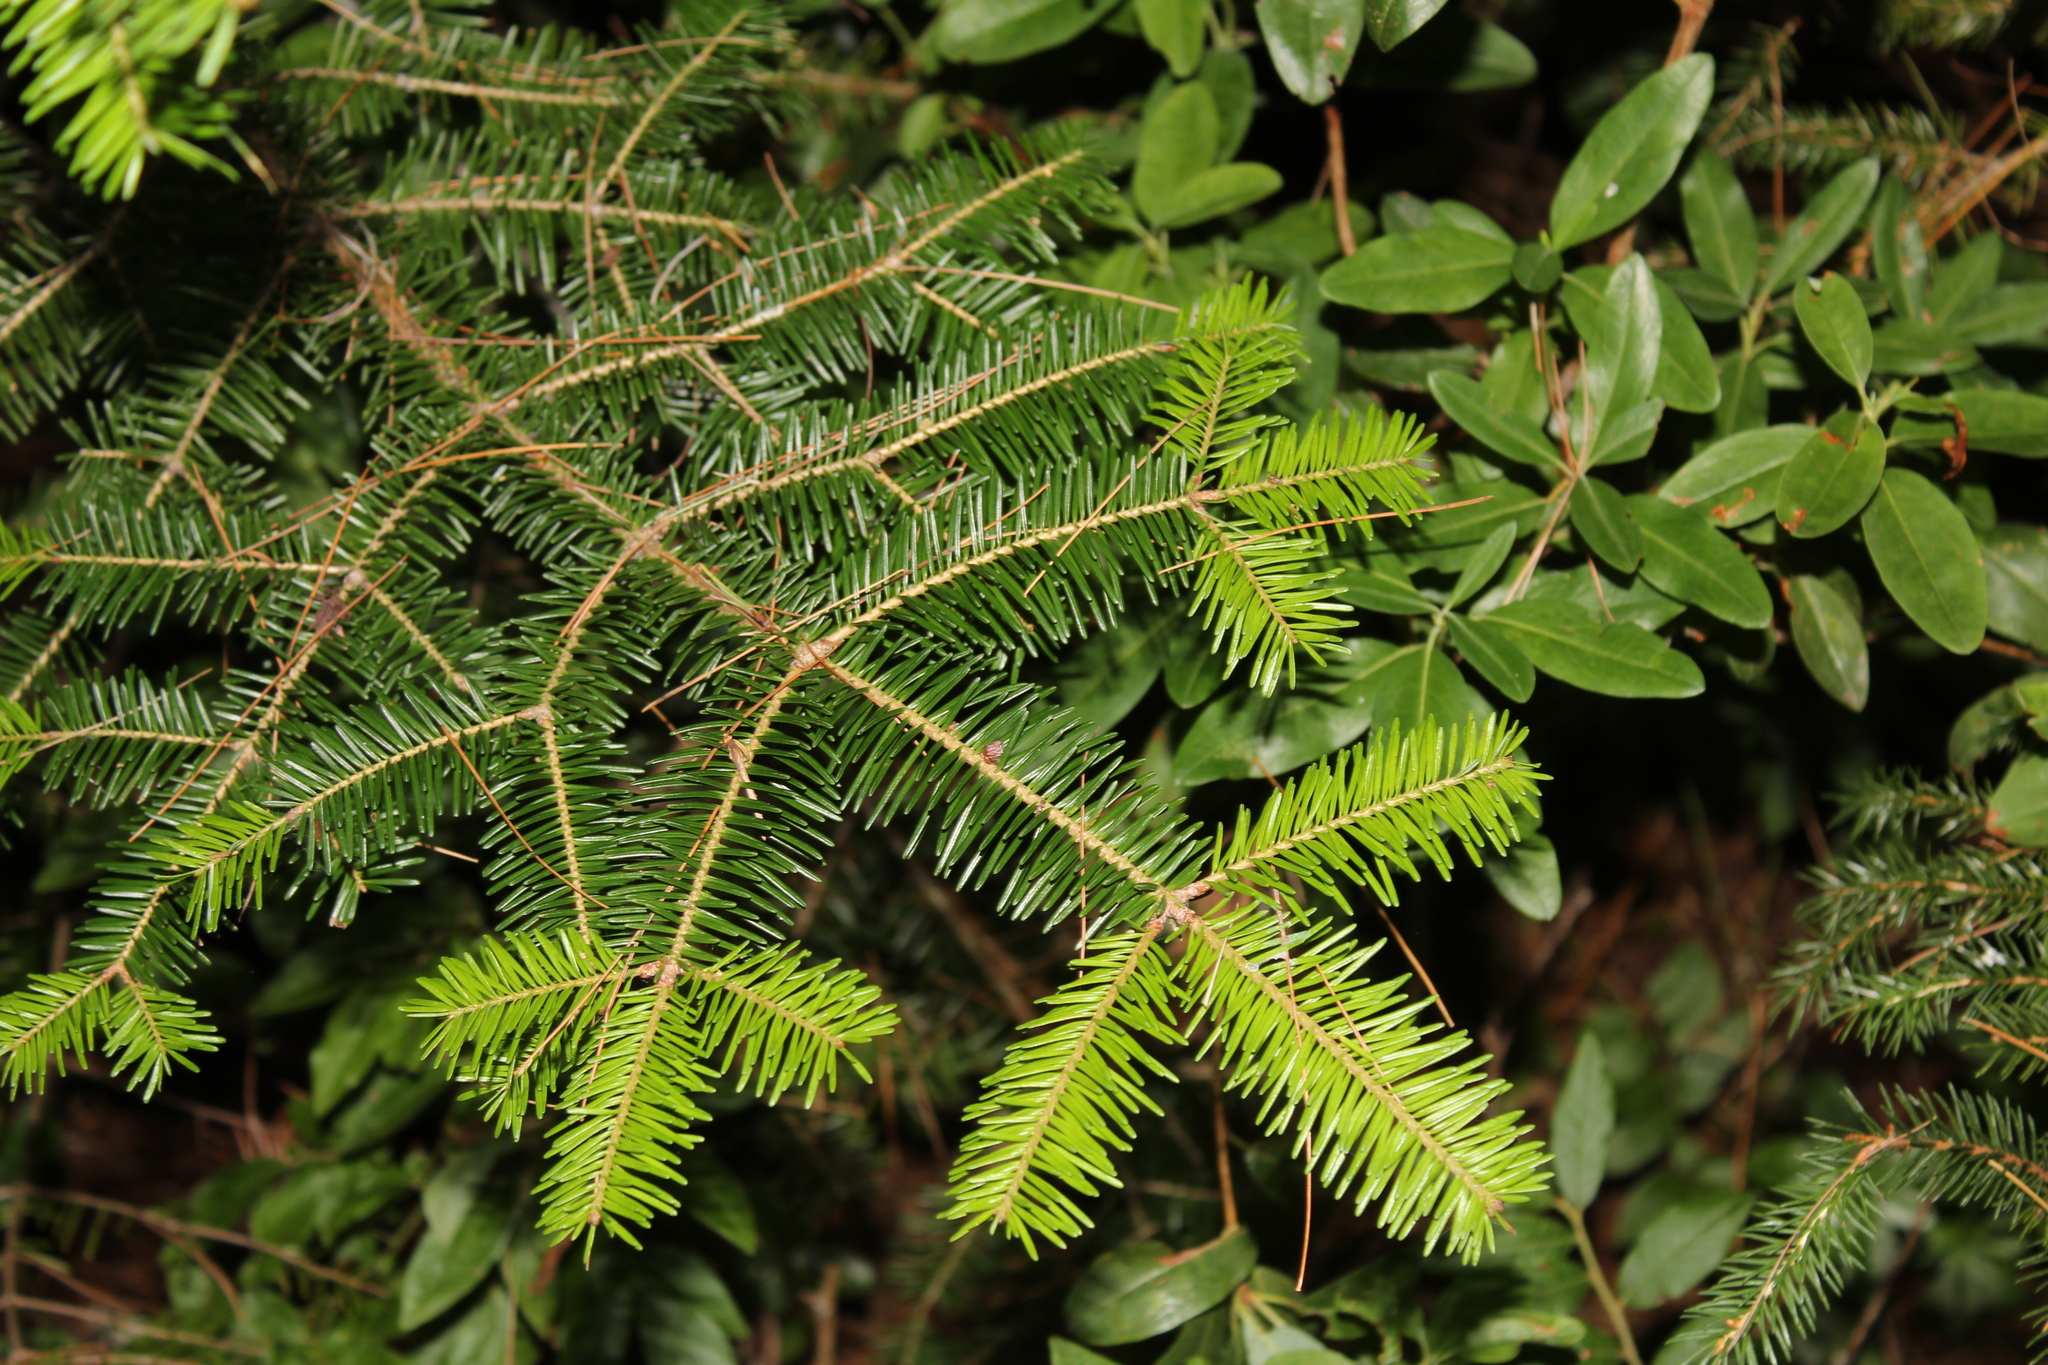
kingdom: Plantae
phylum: Tracheophyta
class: Pinopsida
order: Pinales
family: Pinaceae
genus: Abies
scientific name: Abies balsamea
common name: Balsam fir
